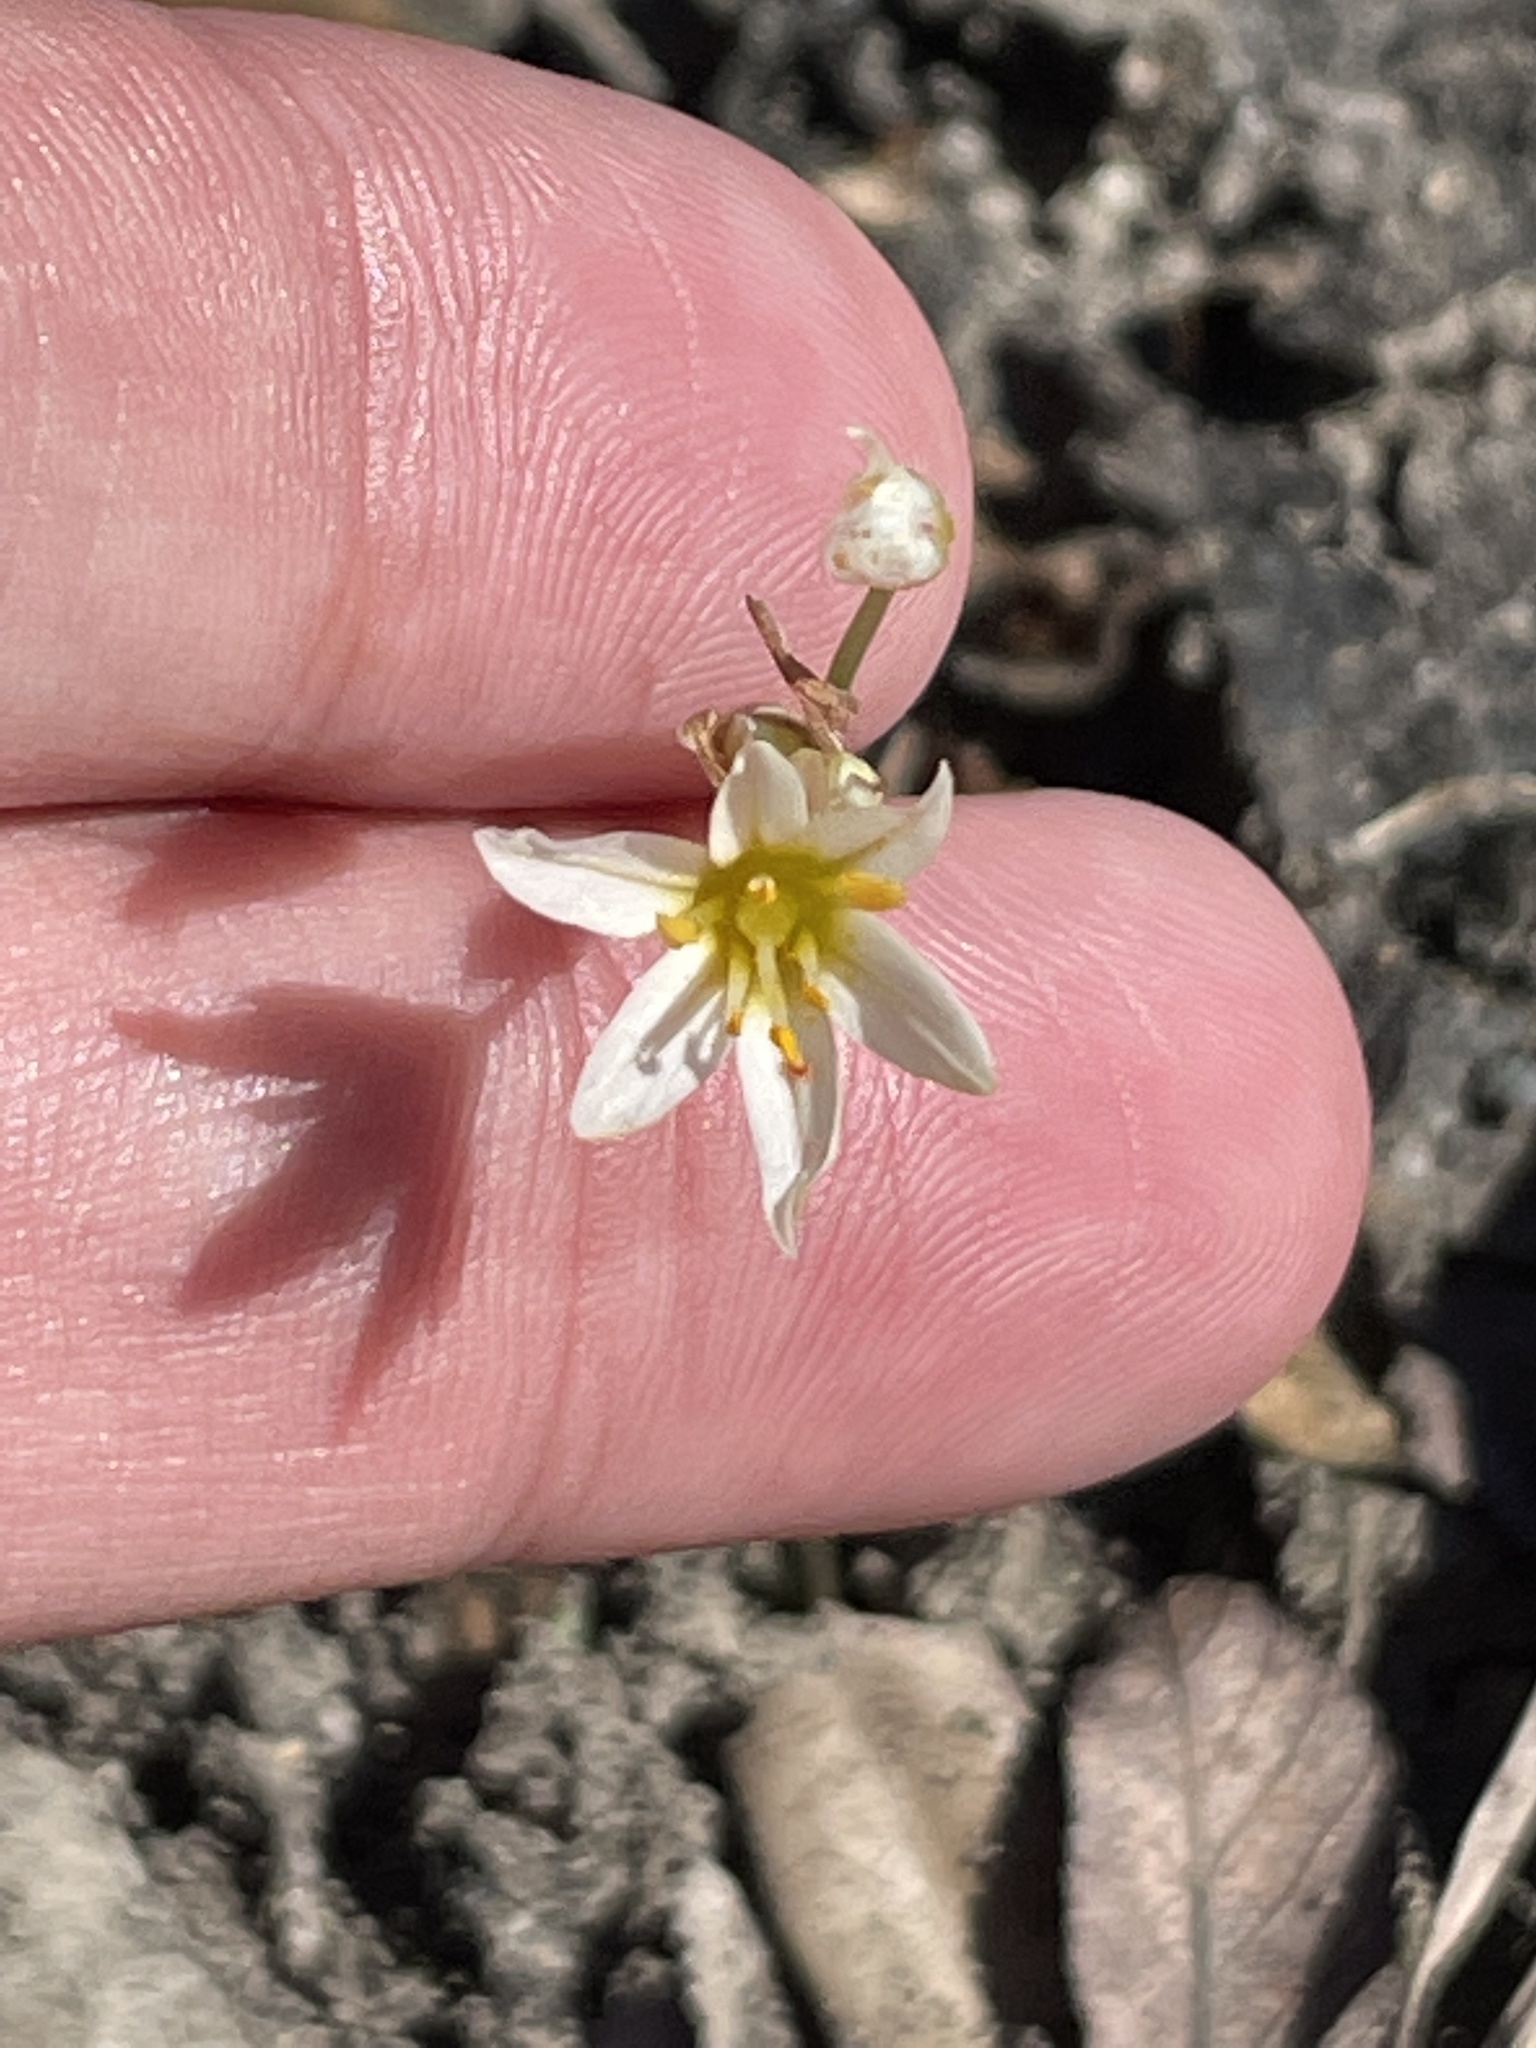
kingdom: Plantae
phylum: Tracheophyta
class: Liliopsida
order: Asparagales
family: Amaryllidaceae
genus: Nothoscordum
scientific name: Nothoscordum bivalve
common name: Crow-poison
